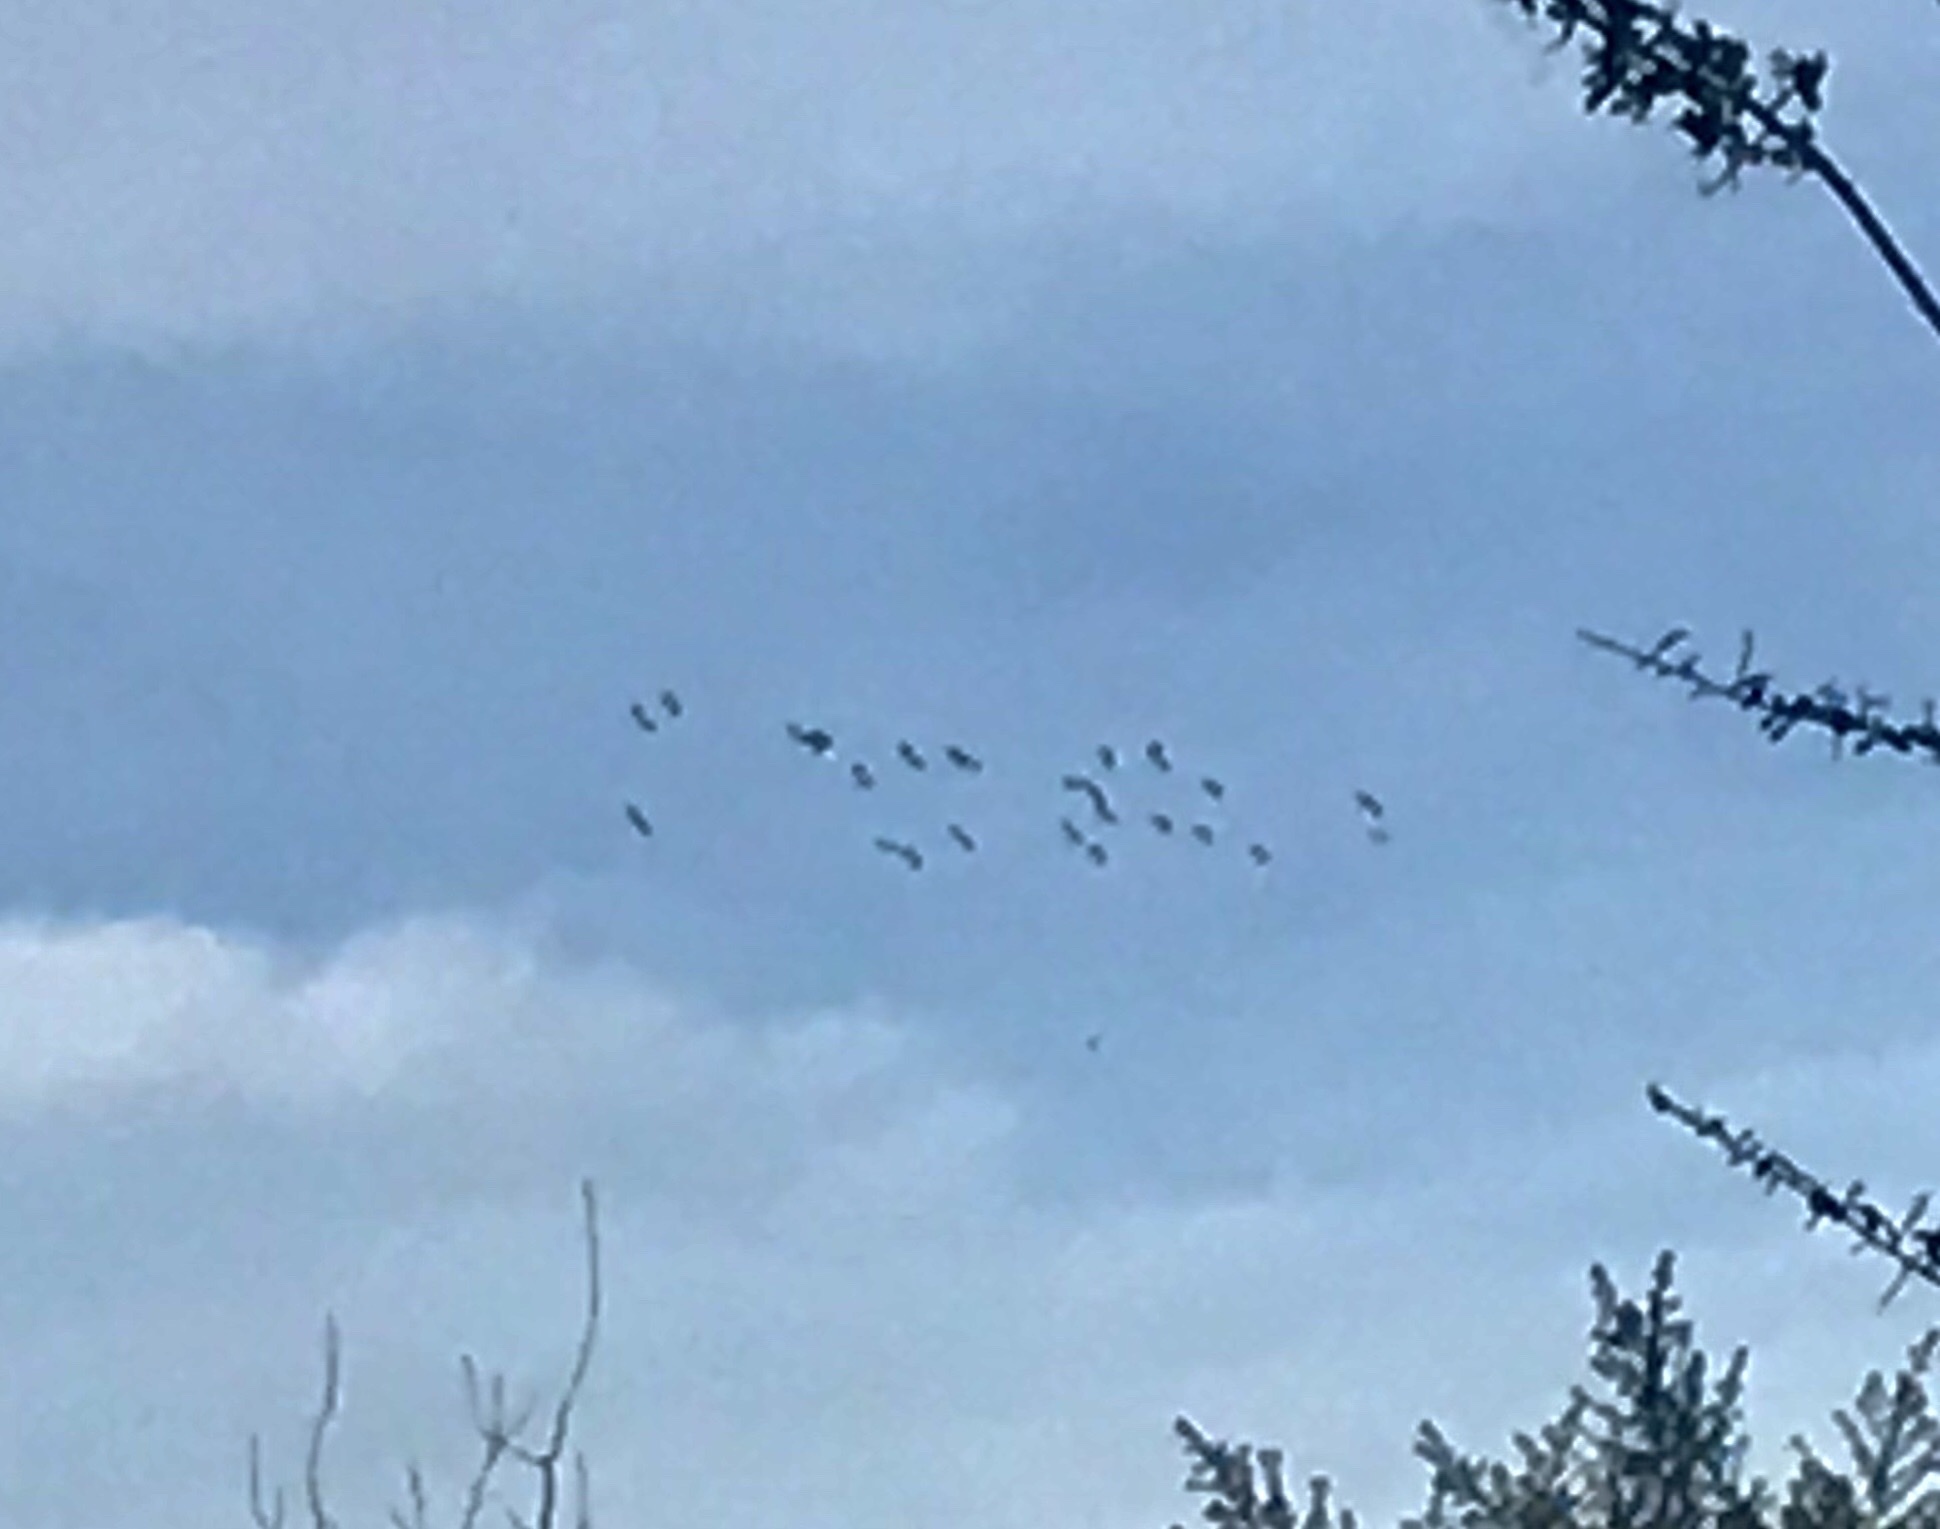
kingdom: Animalia
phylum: Chordata
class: Aves
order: Charadriiformes
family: Charadriidae
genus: Vanellus
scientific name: Vanellus vanellus
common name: Northern lapwing
